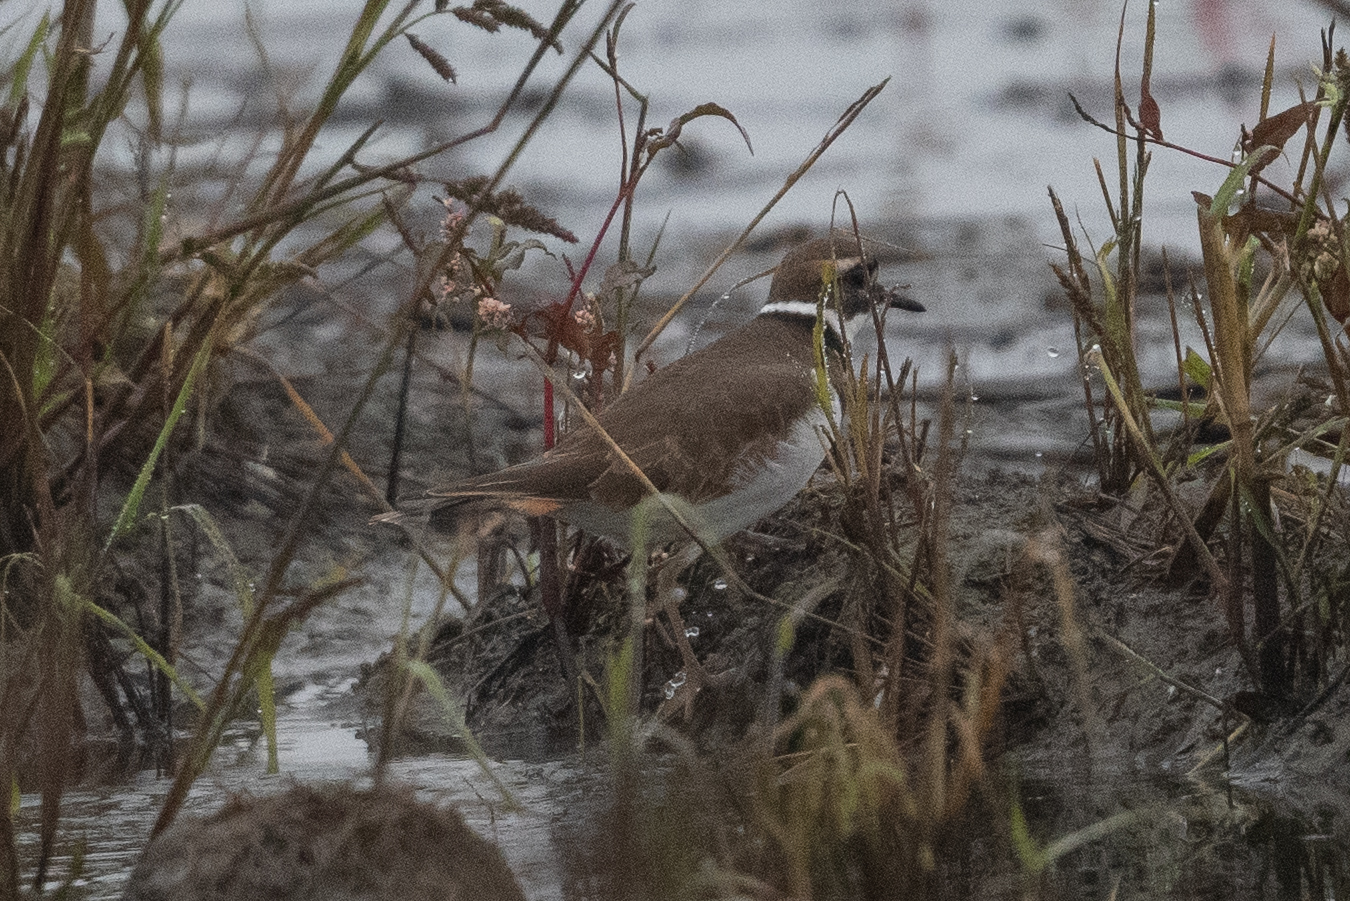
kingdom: Animalia
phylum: Chordata
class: Aves
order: Charadriiformes
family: Charadriidae
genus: Charadrius
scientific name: Charadrius vociferus
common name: Killdeer
